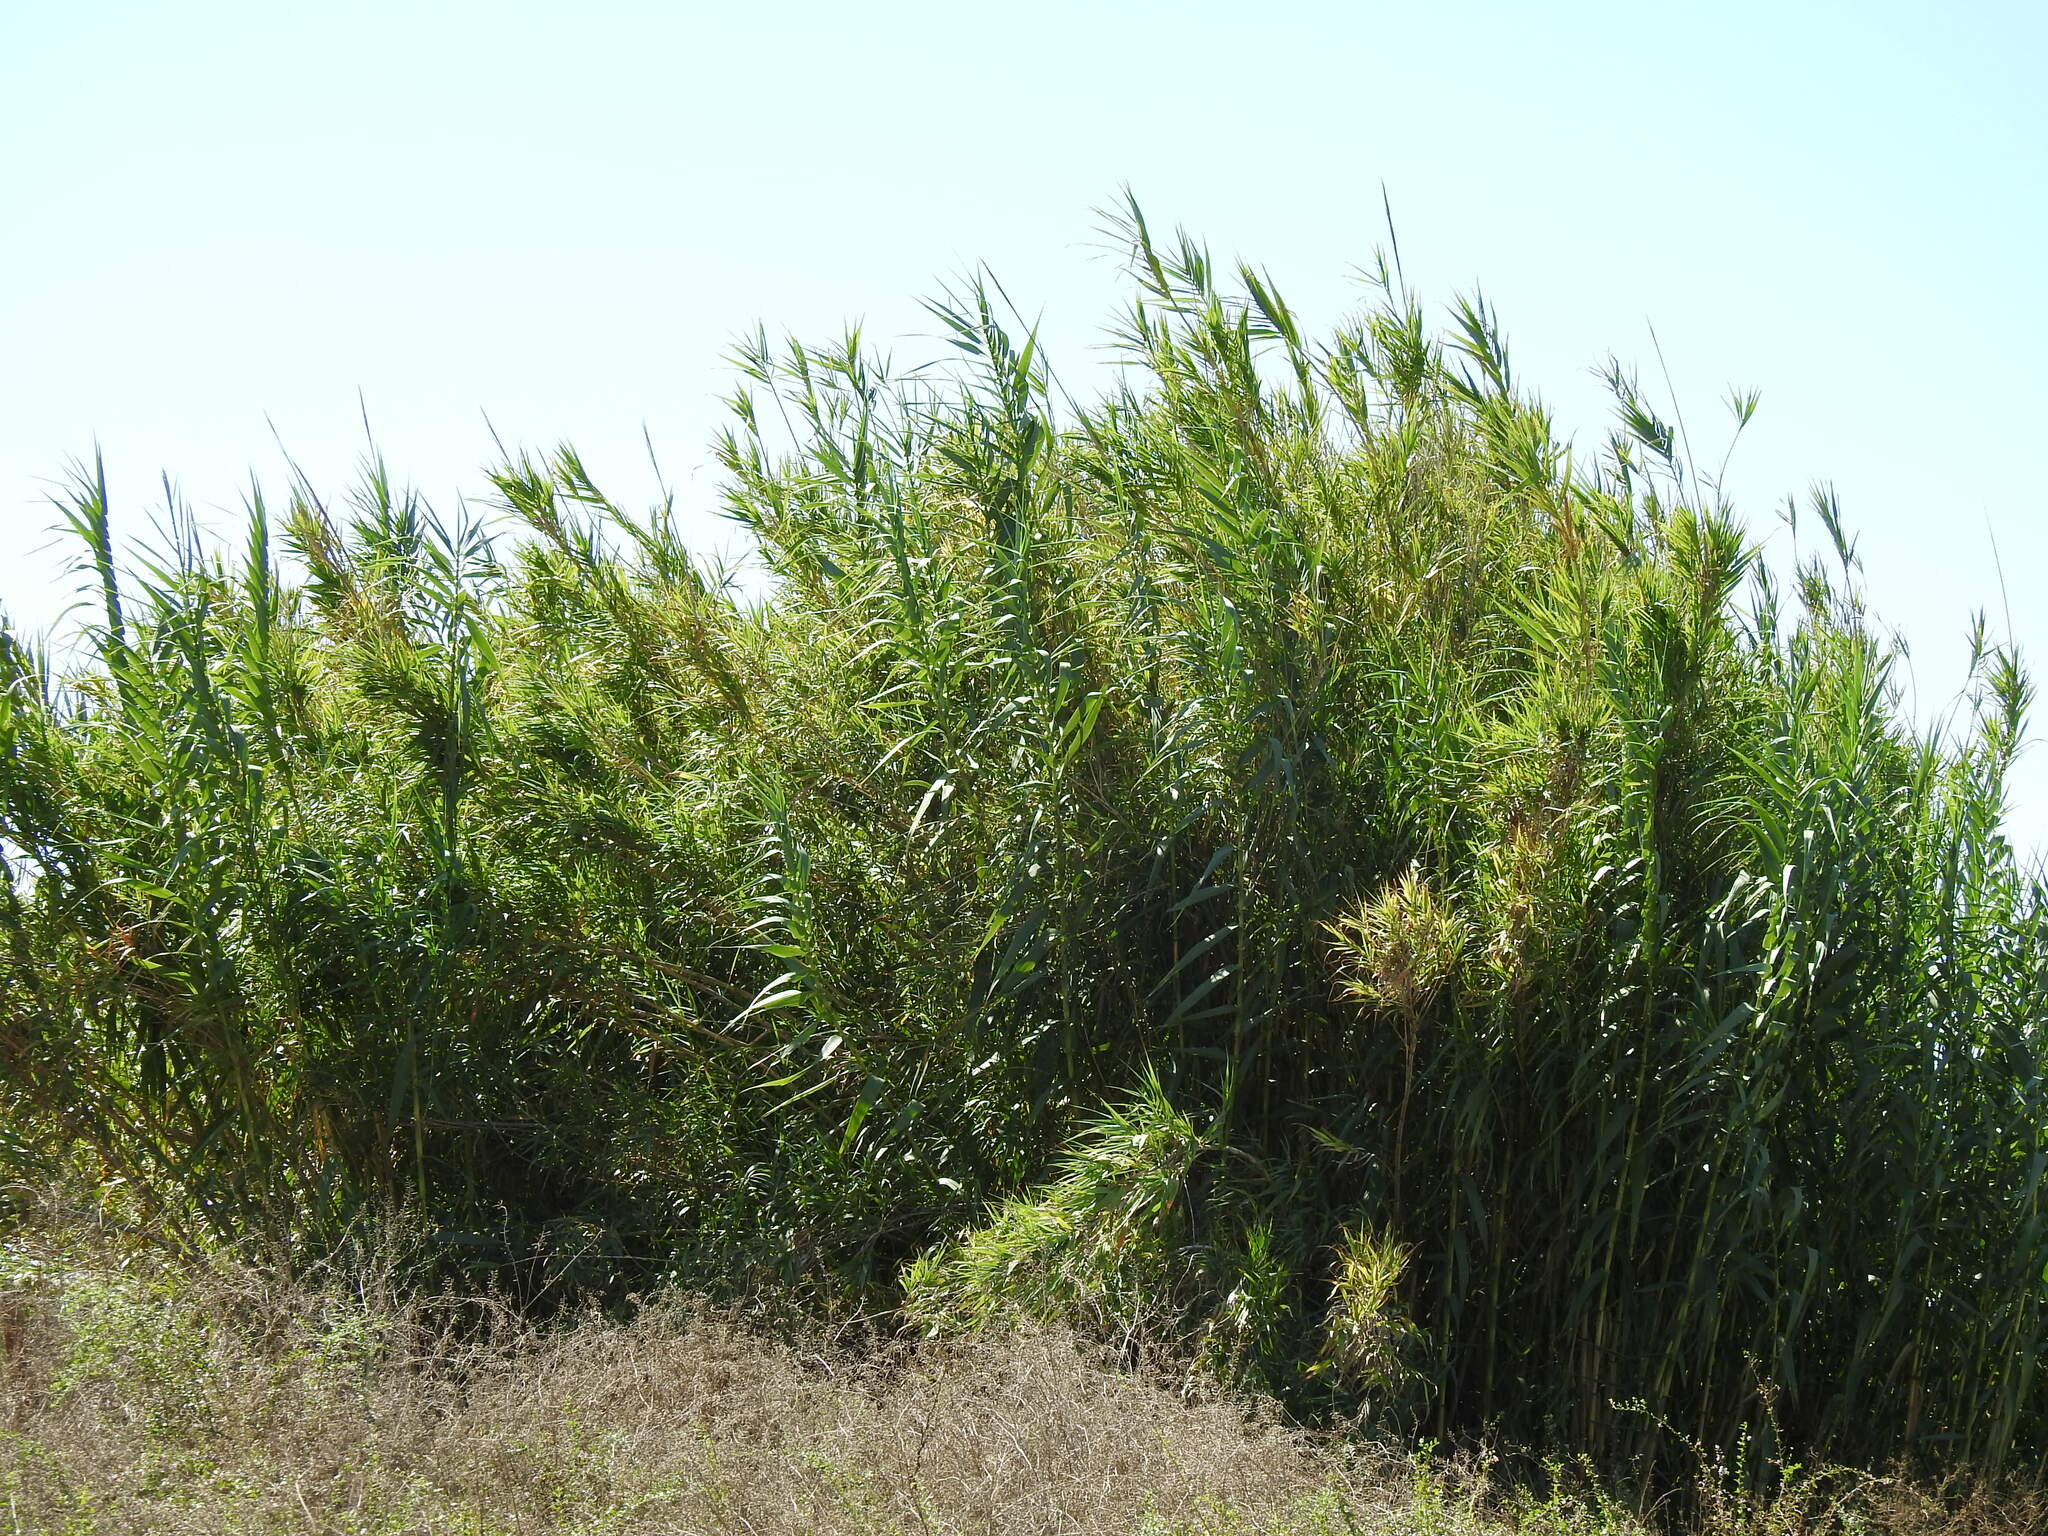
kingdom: Plantae
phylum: Tracheophyta
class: Liliopsida
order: Poales
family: Poaceae
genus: Arundo
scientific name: Arundo donax
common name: Giant reed
